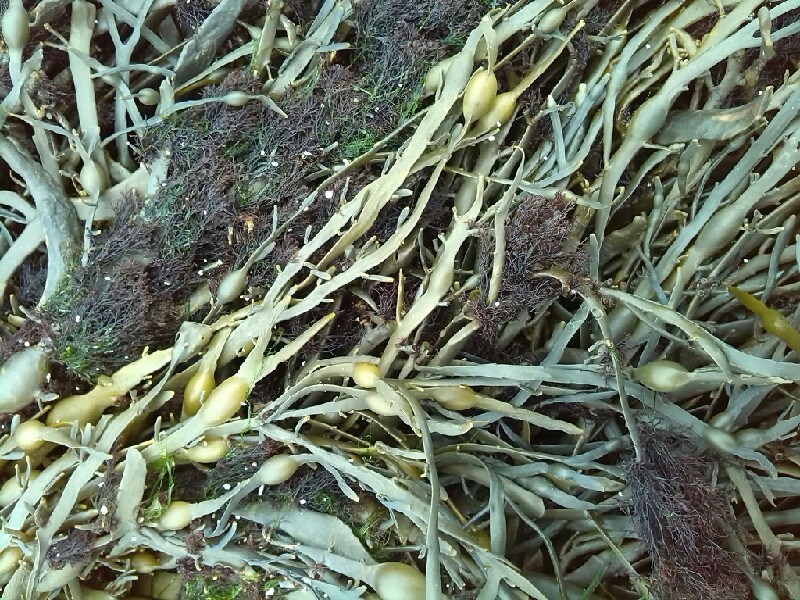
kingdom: Plantae
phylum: Rhodophyta
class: Florideophyceae
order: Ceramiales
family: Rhodomelaceae
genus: Vertebrata
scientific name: Vertebrata lanosa
